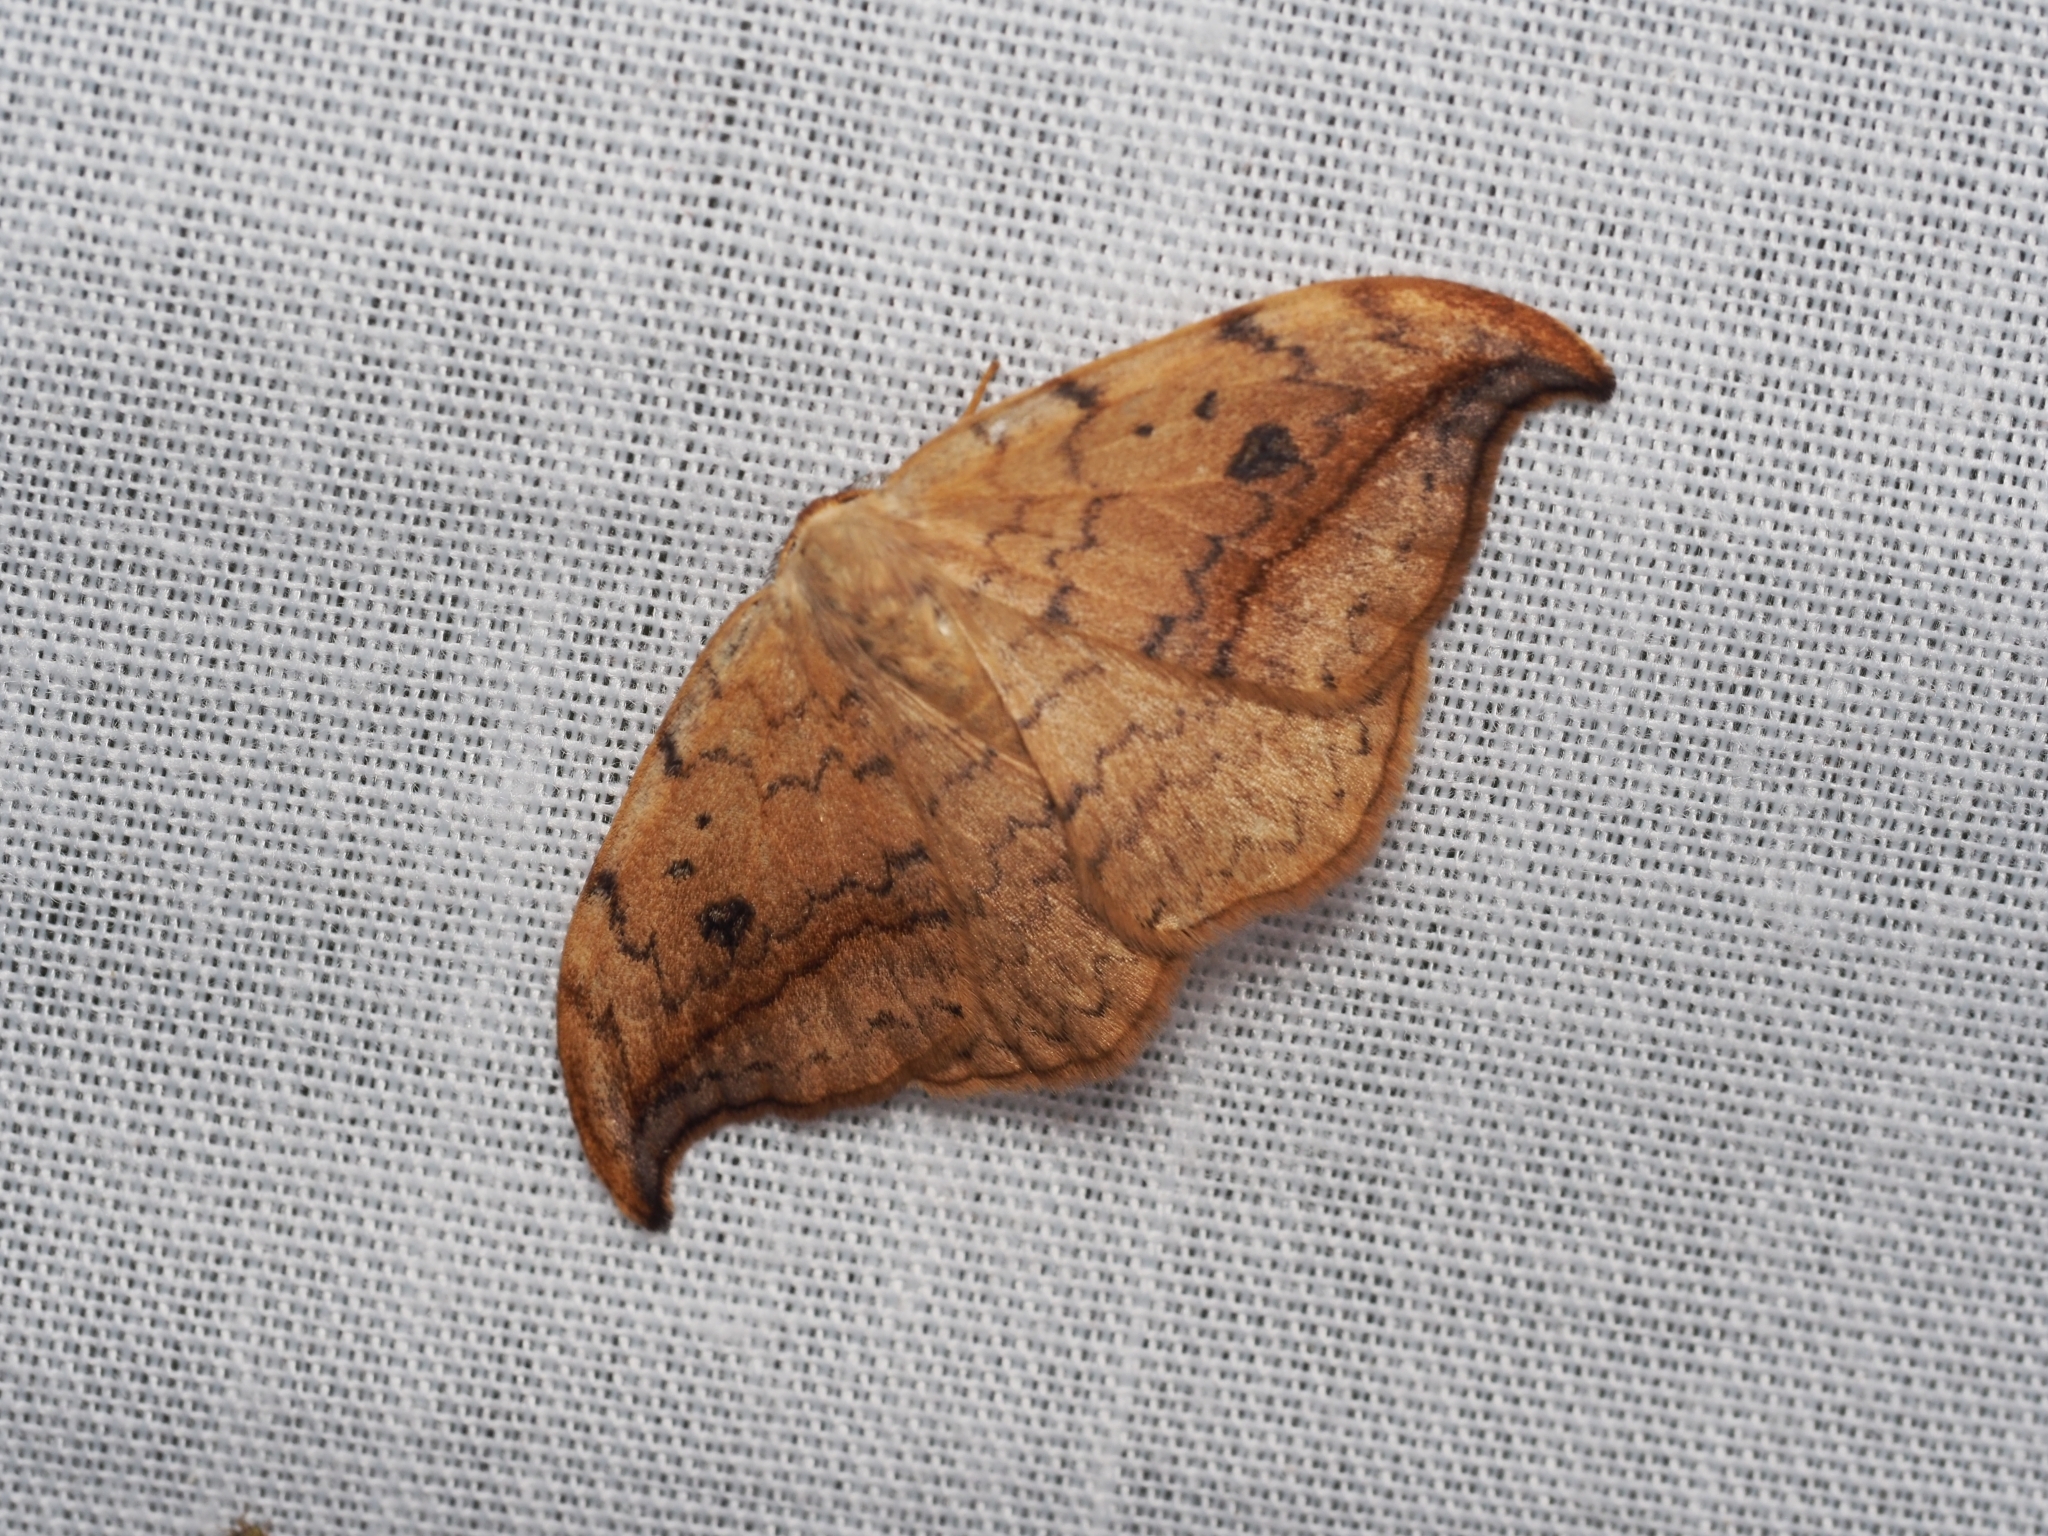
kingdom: Animalia
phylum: Arthropoda
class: Insecta
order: Lepidoptera
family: Drepanidae
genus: Drepana
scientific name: Drepana falcataria
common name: Pebble hook-tip
